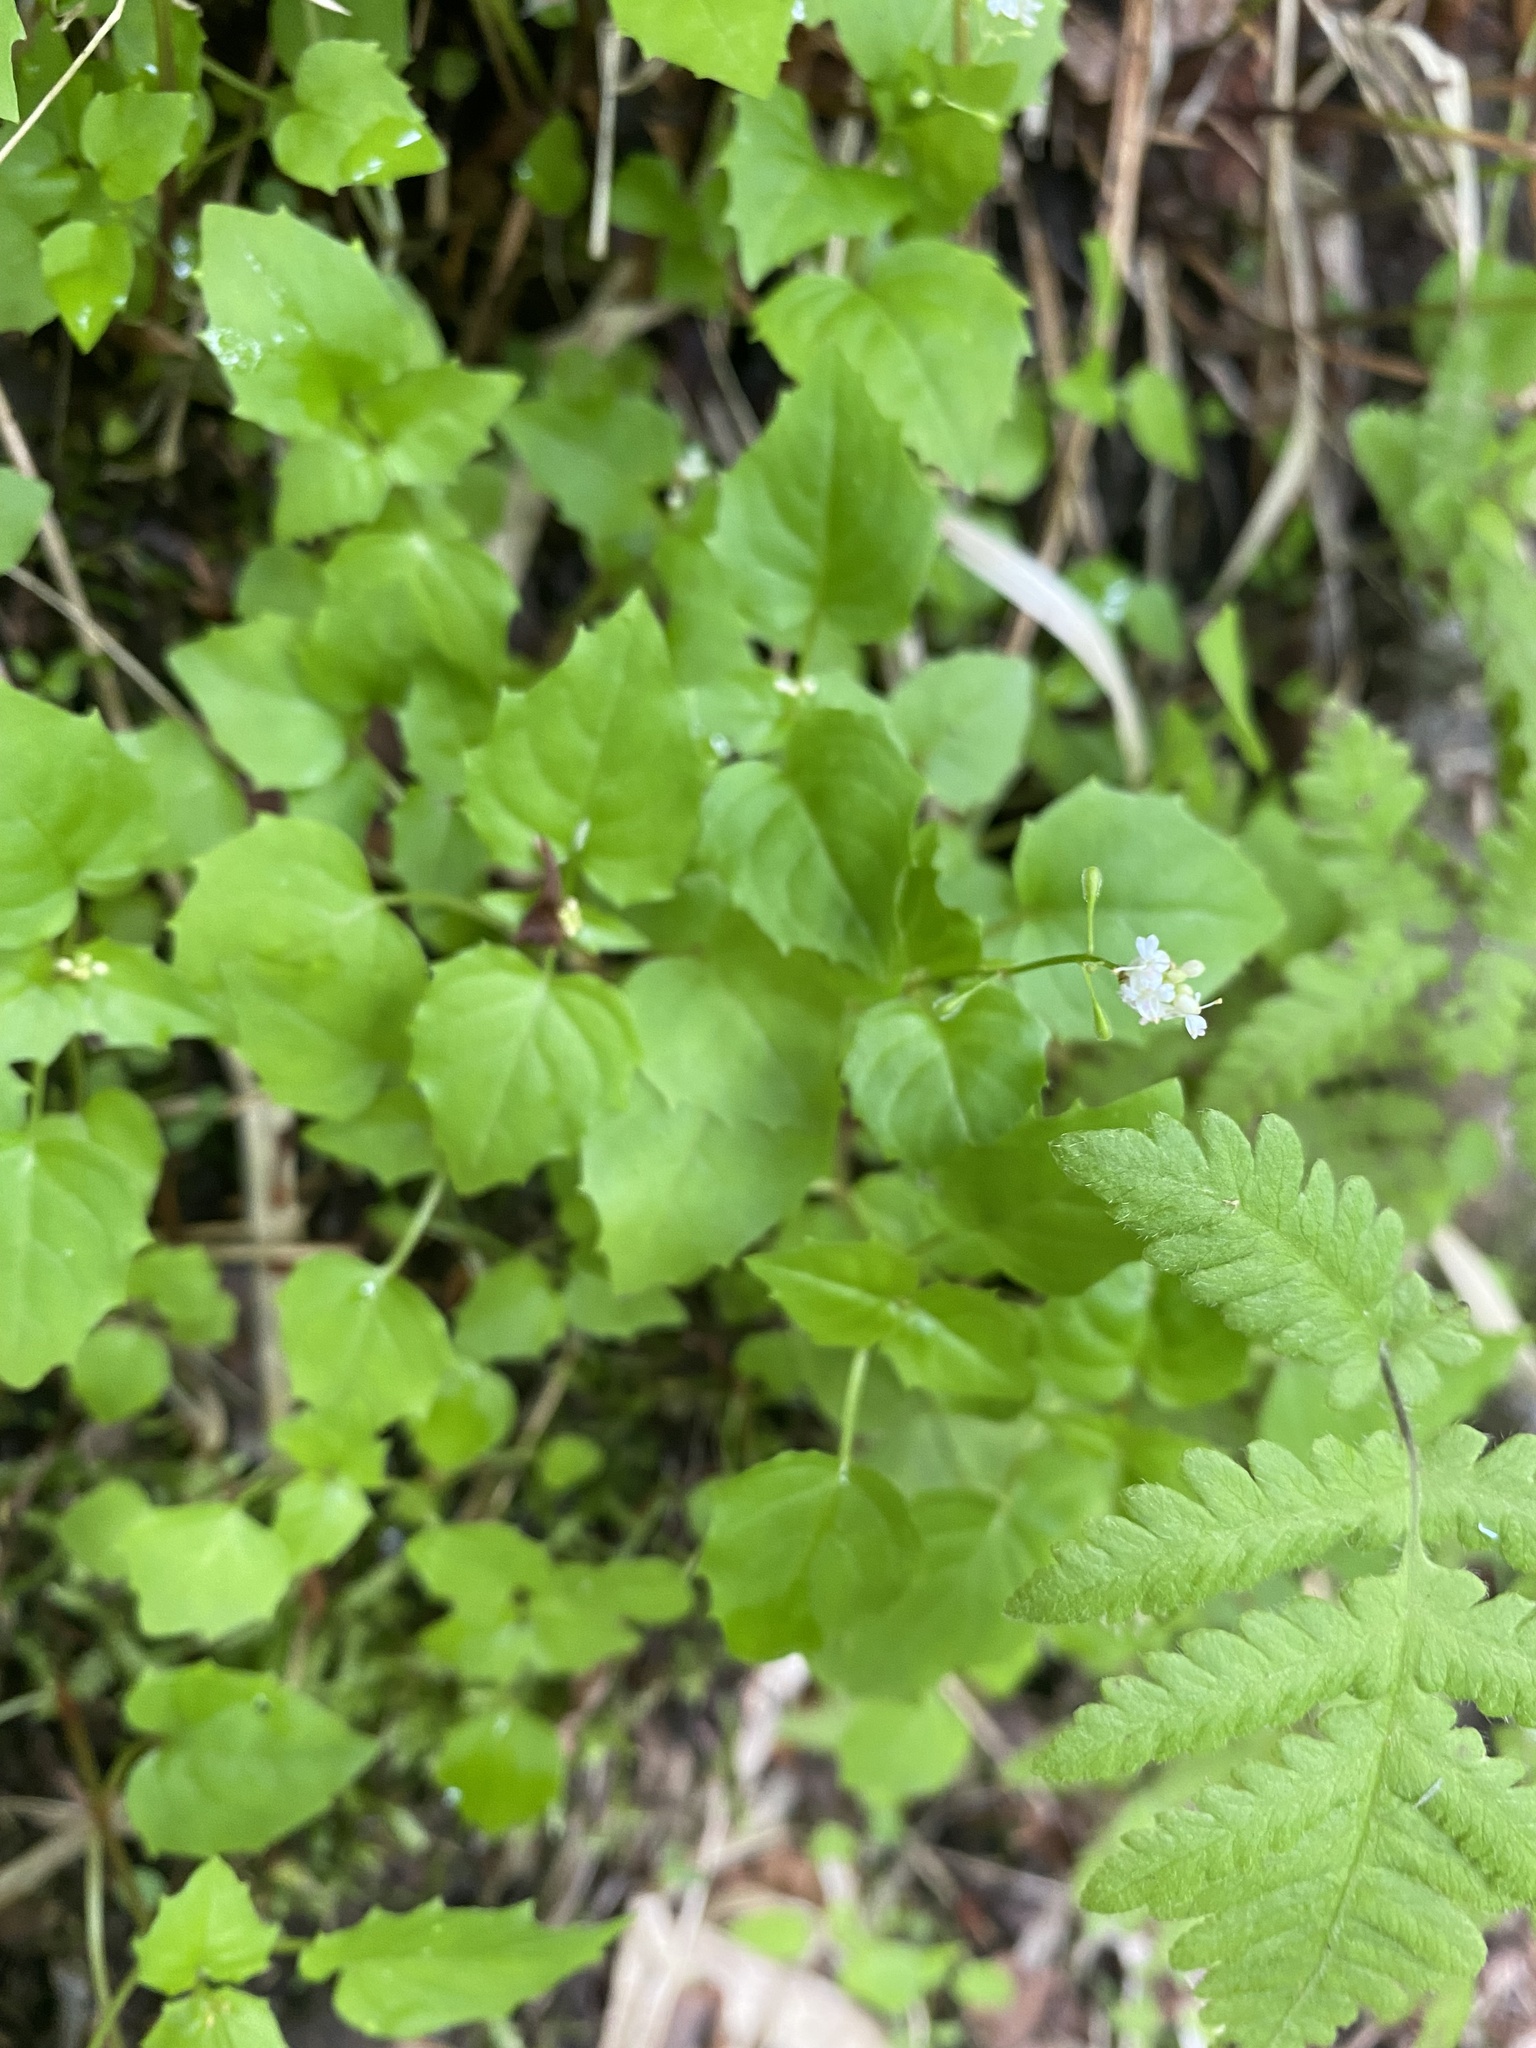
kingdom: Plantae
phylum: Tracheophyta
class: Magnoliopsida
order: Myrtales
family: Onagraceae
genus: Circaea
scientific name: Circaea alpina
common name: Alpine enchanter's-nightshade
